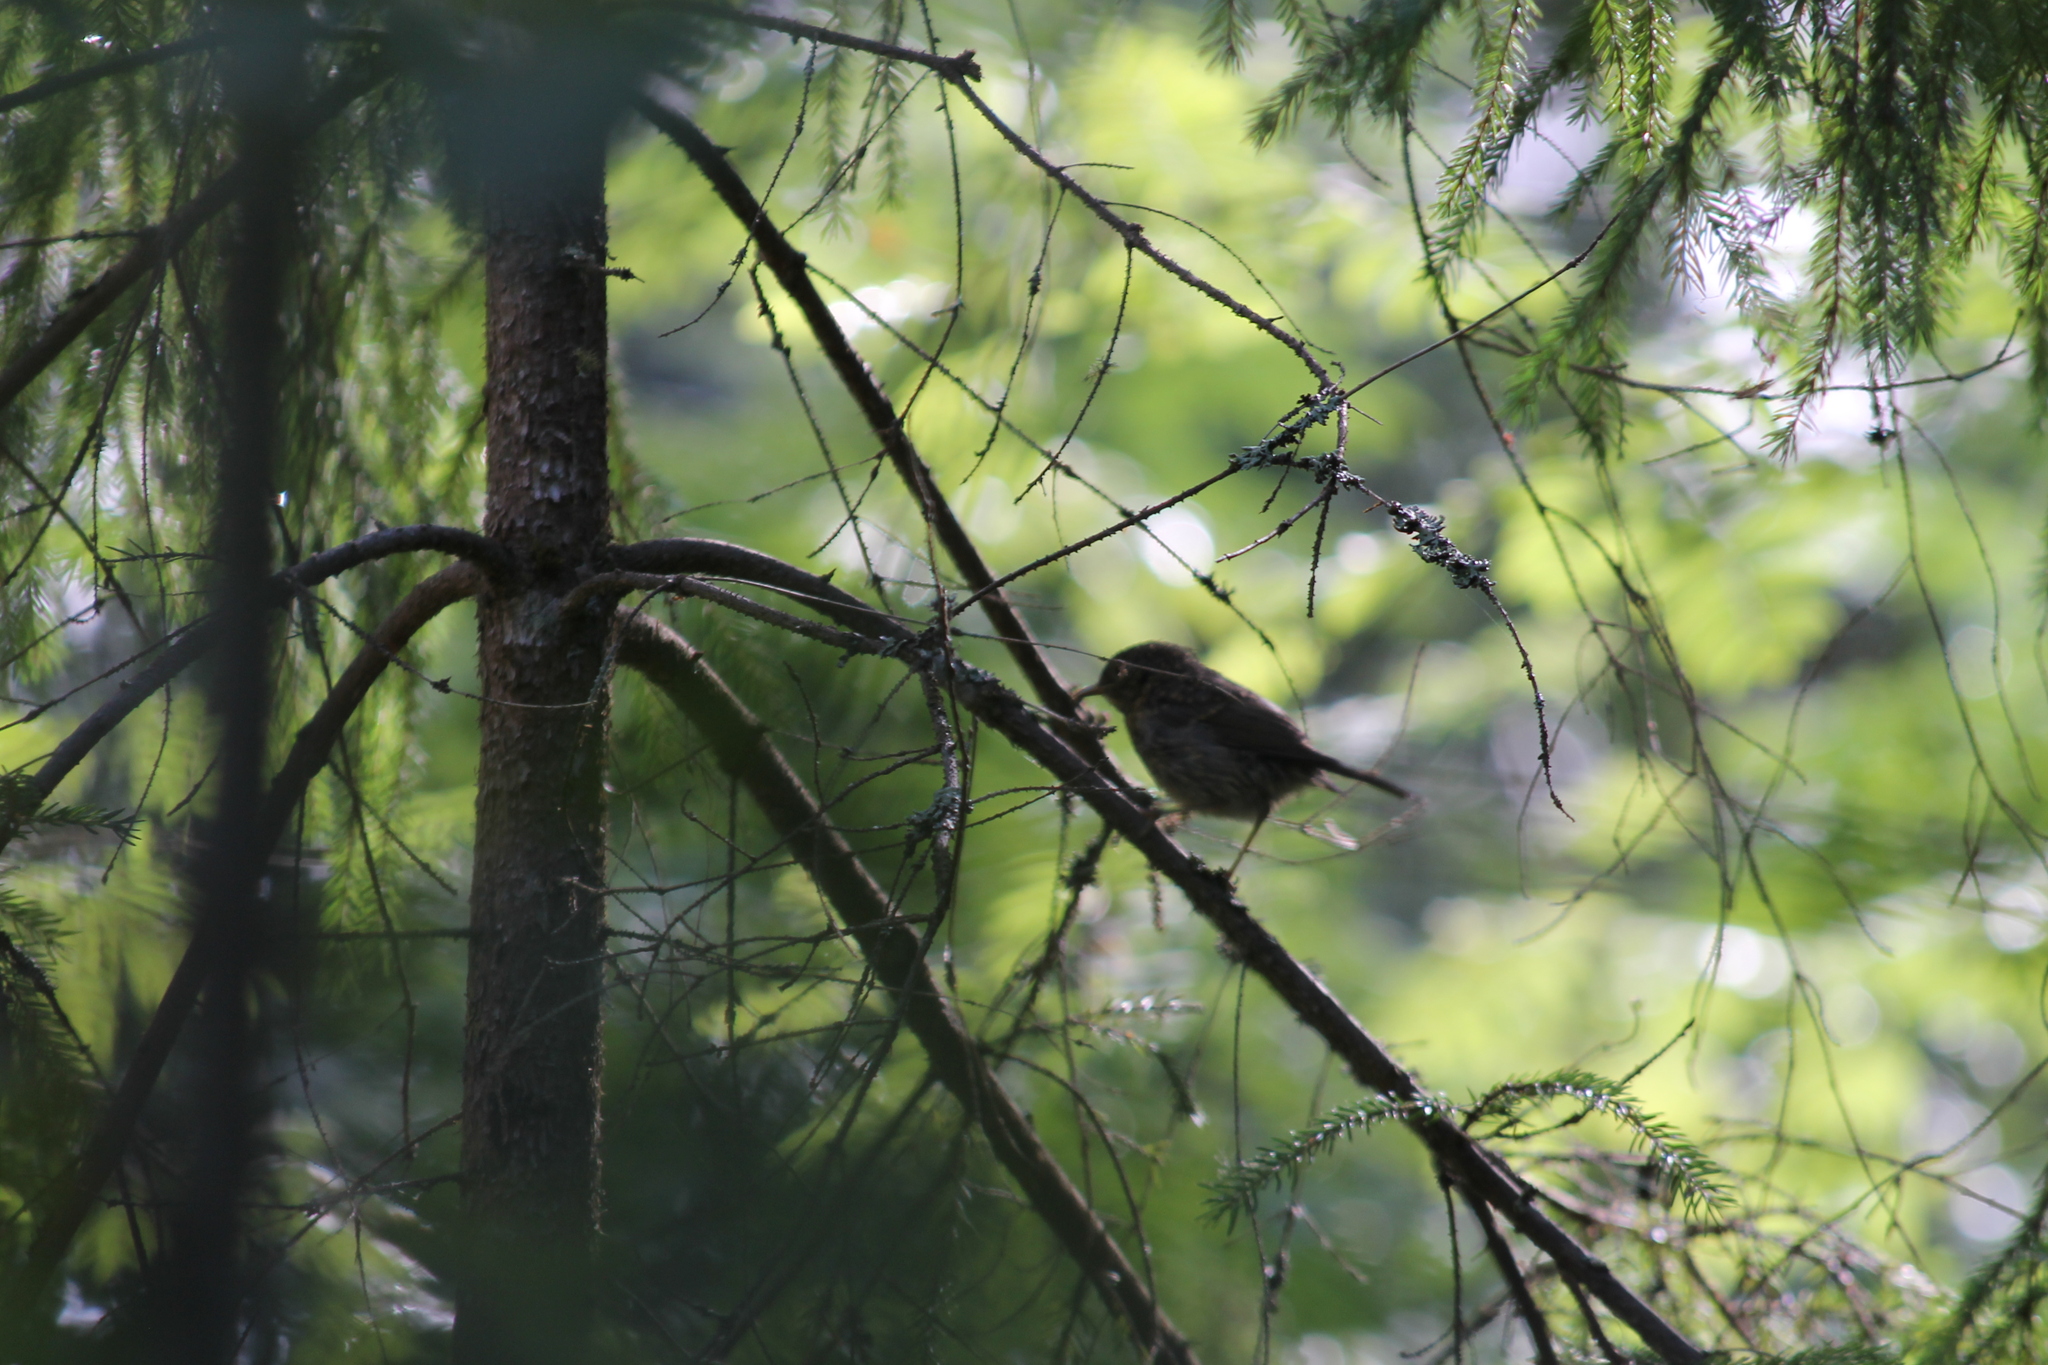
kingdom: Animalia
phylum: Chordata
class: Aves
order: Passeriformes
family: Muscicapidae
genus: Erithacus
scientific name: Erithacus rubecula
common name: European robin
